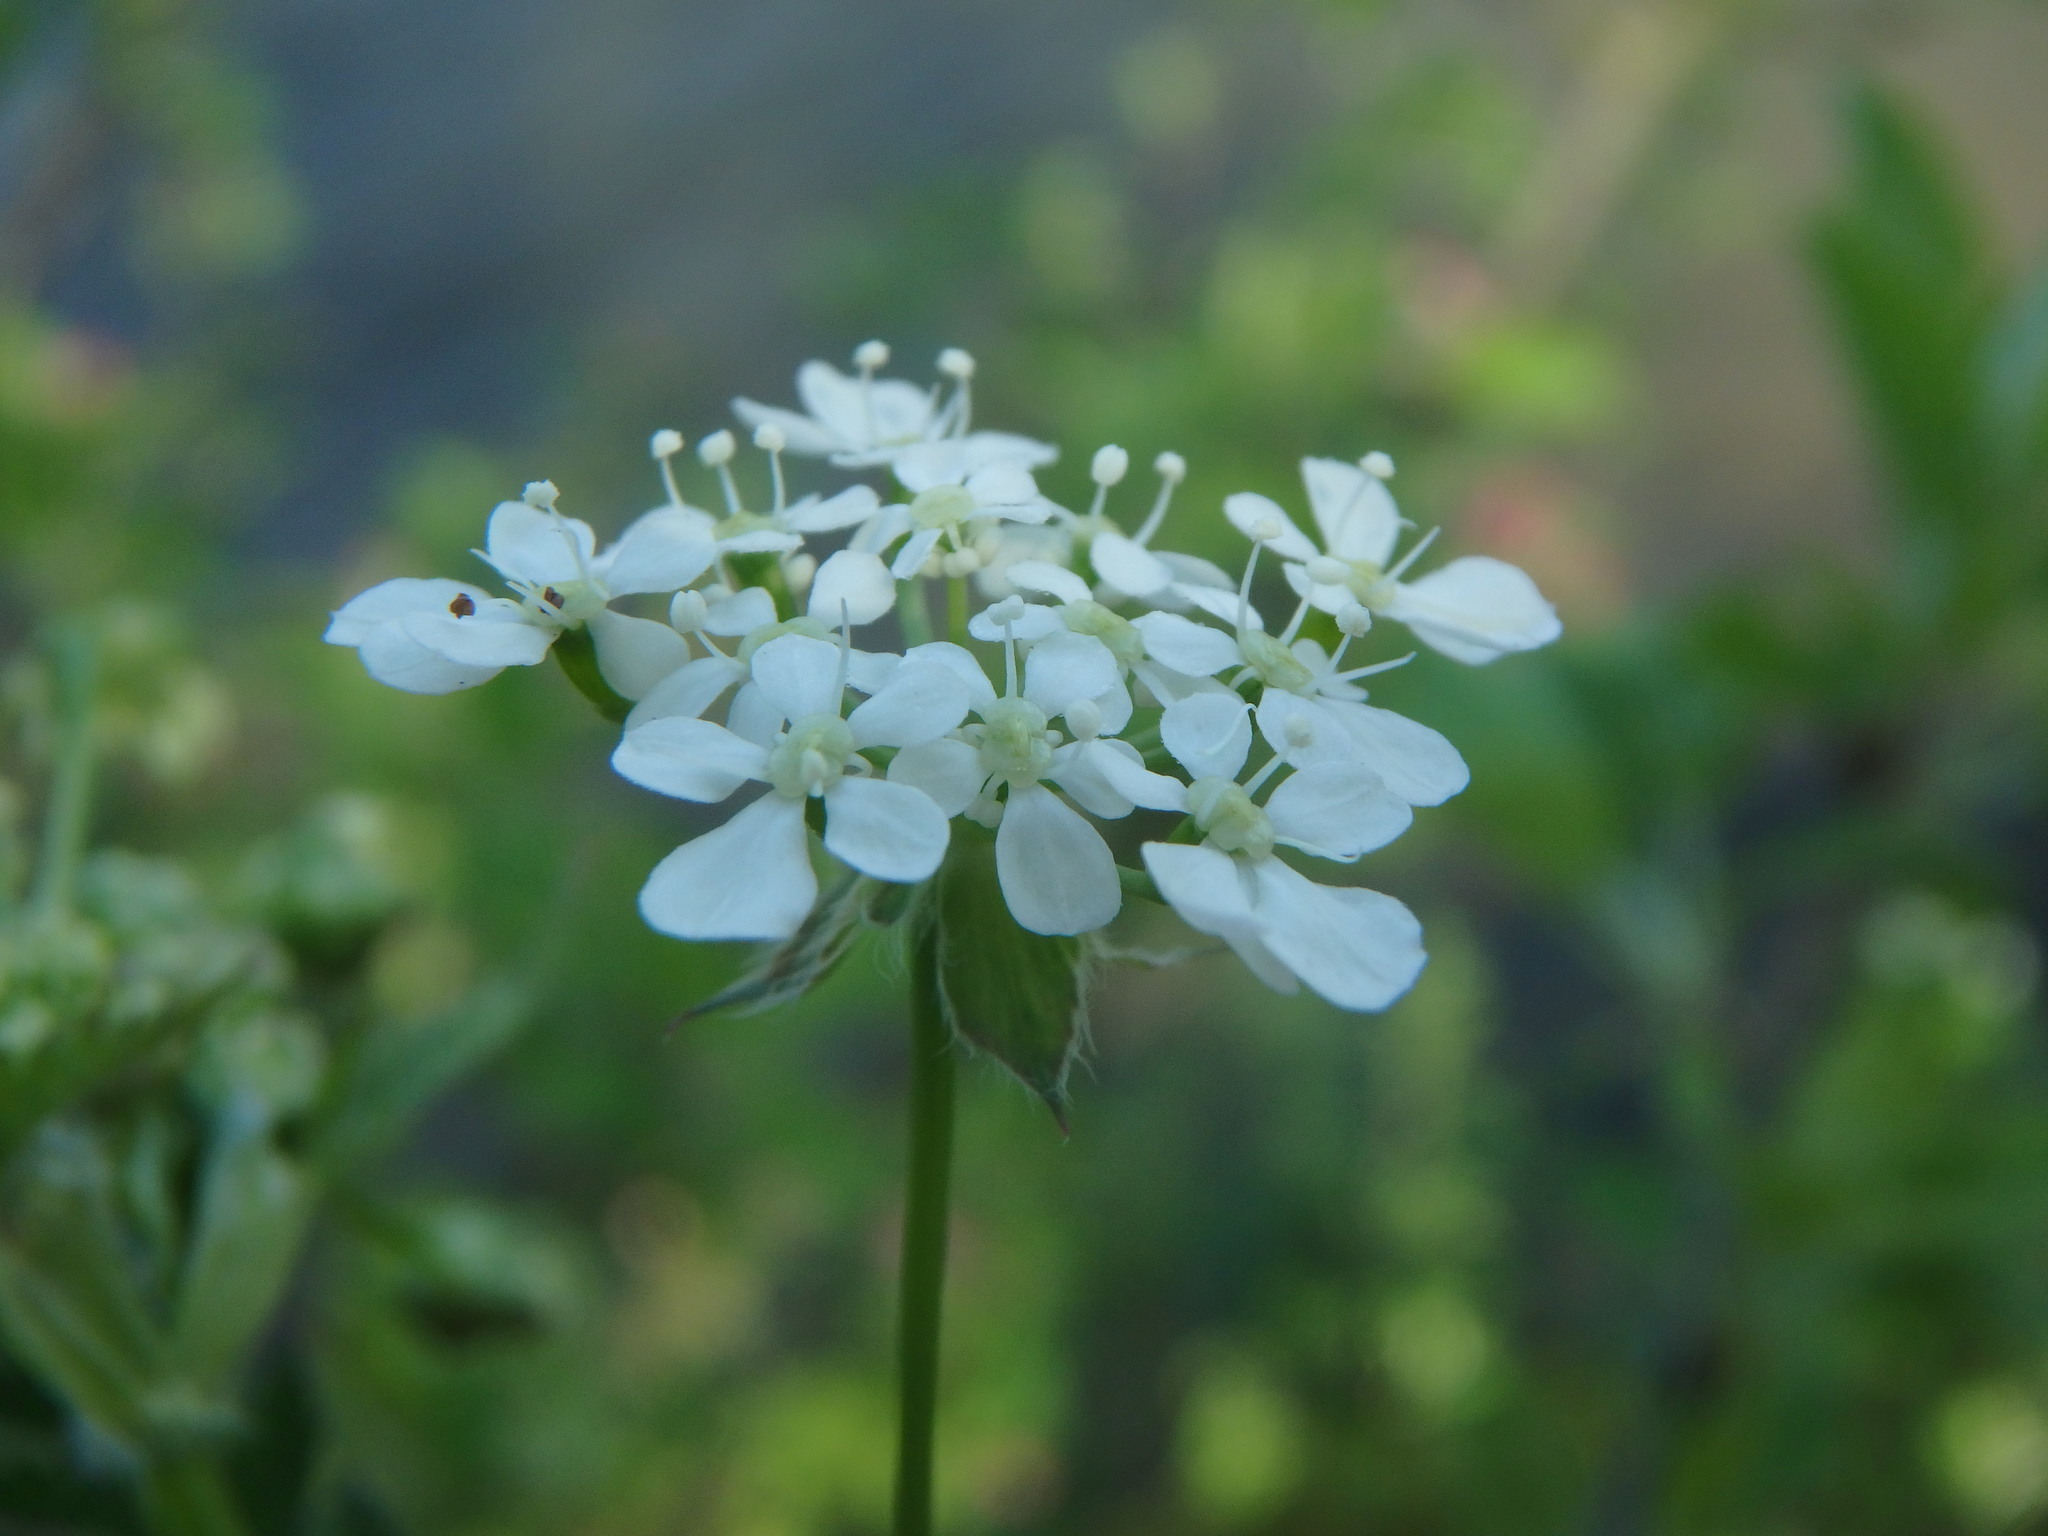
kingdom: Plantae
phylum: Tracheophyta
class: Magnoliopsida
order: Apiales
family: Apiaceae
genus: Anthriscus
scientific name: Anthriscus sylvestris
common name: Cow parsley
